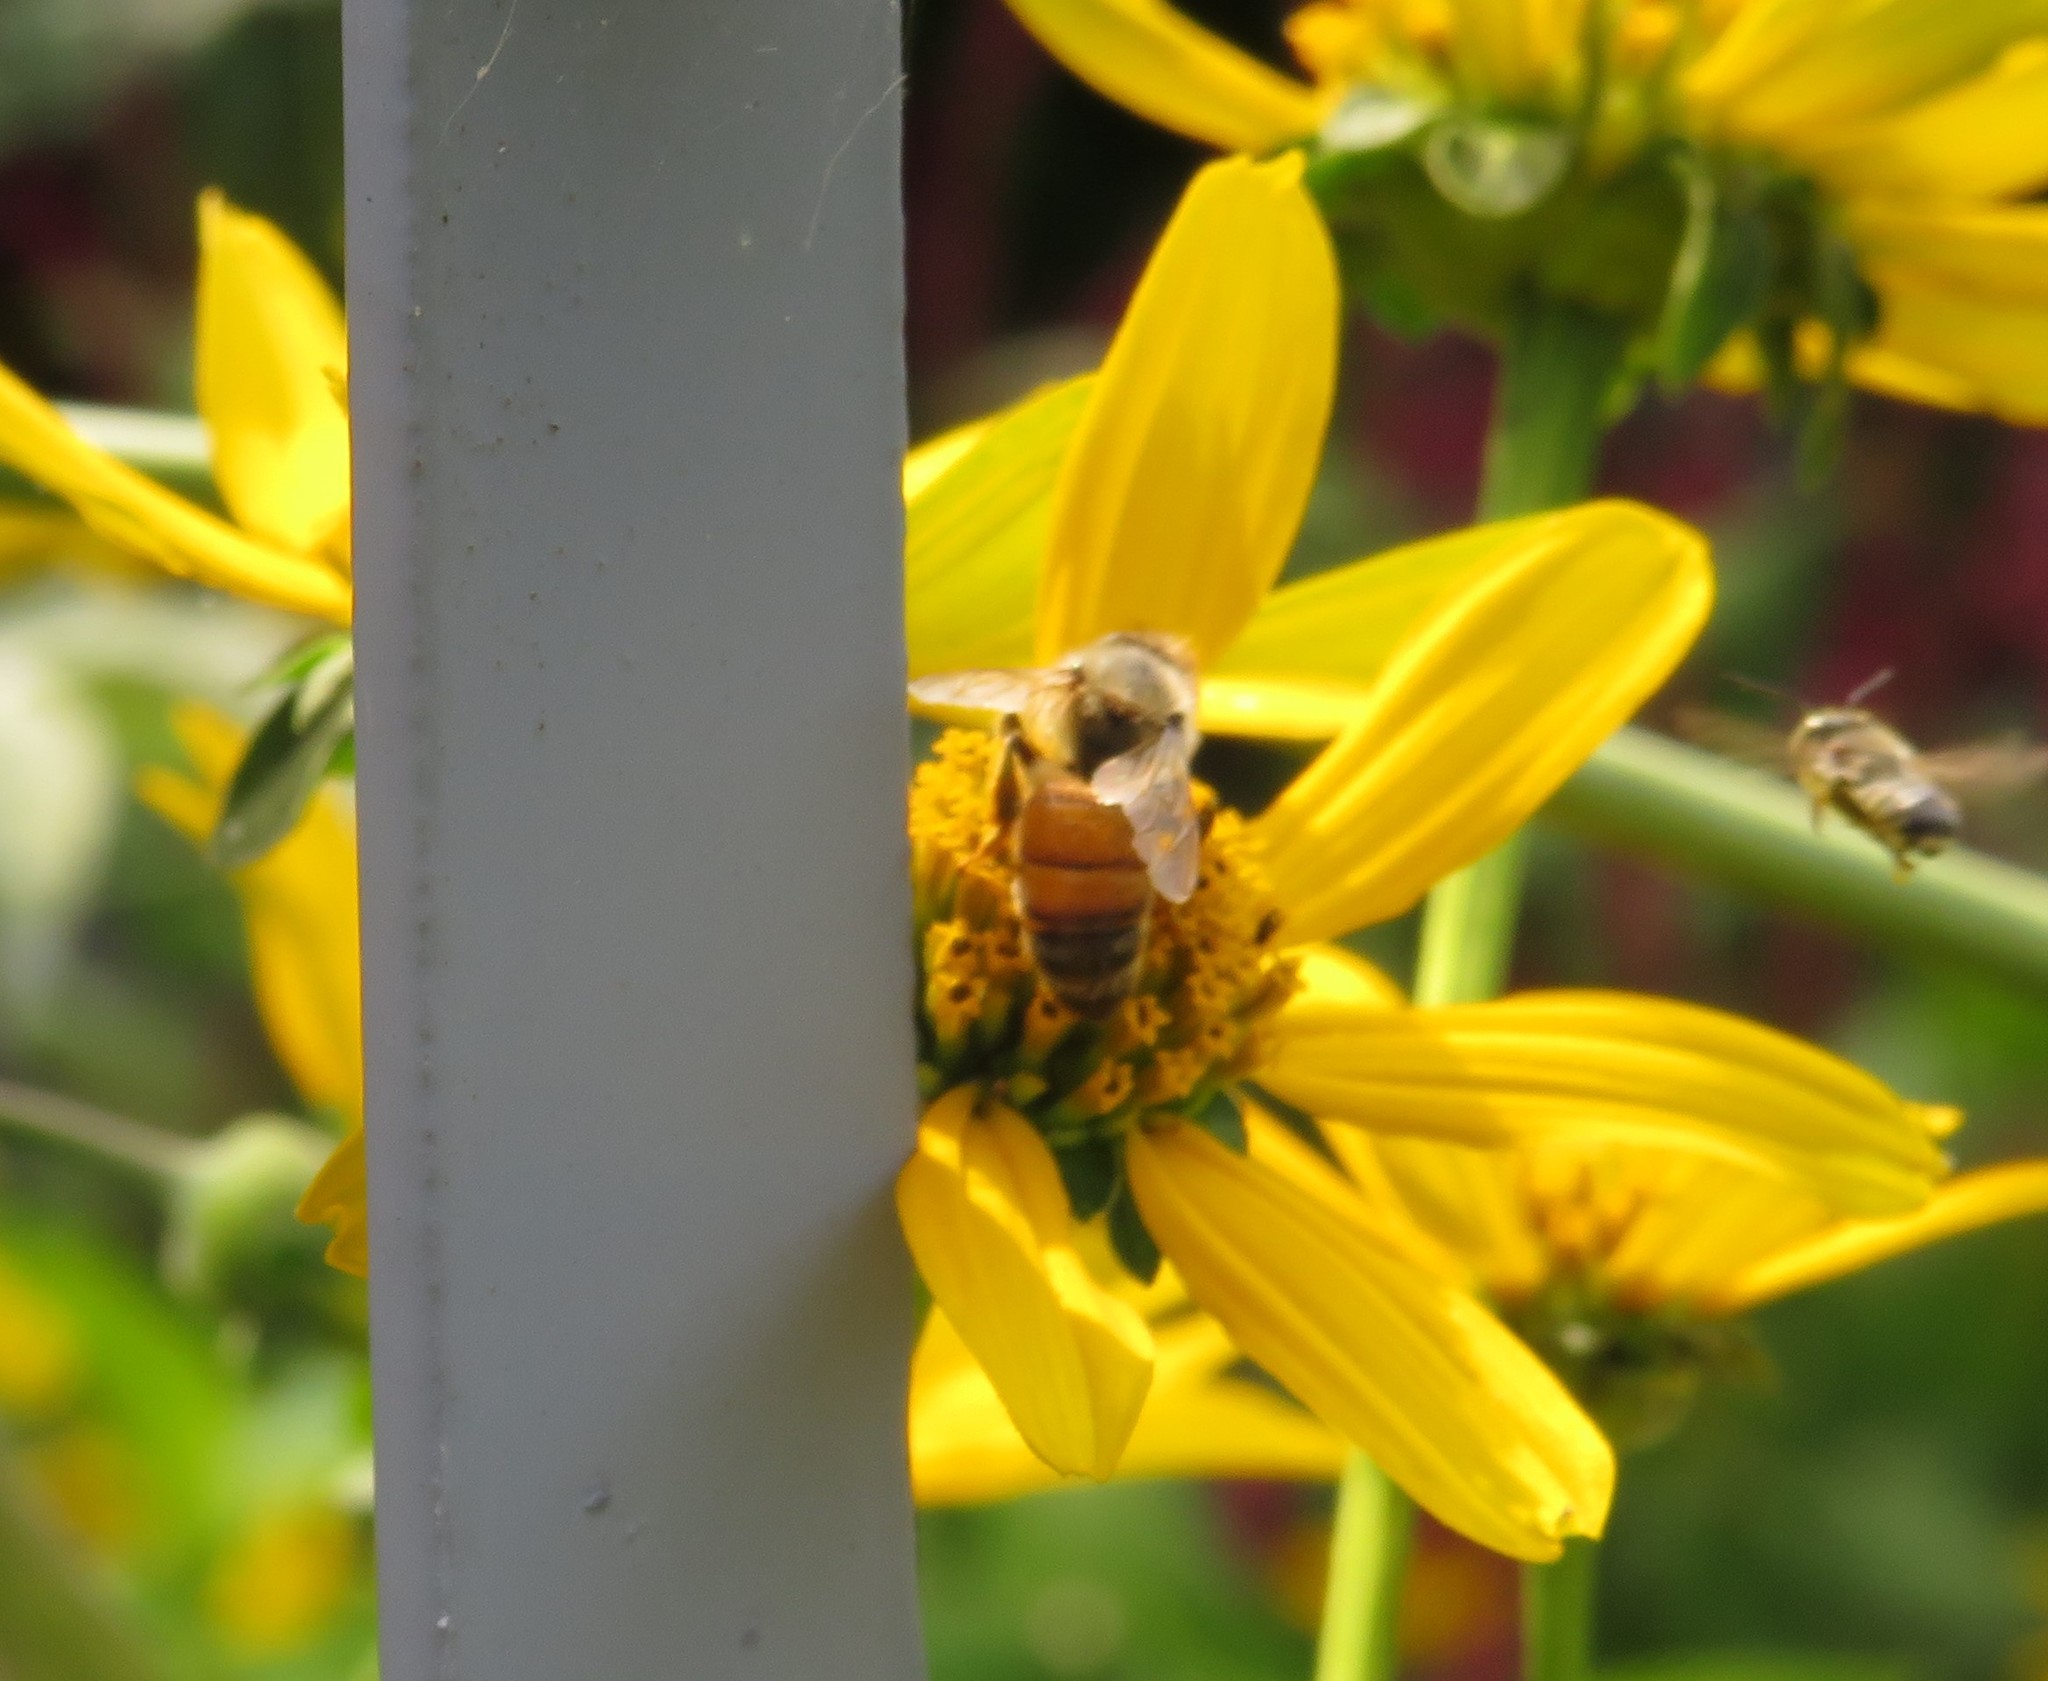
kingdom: Animalia
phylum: Arthropoda
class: Insecta
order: Hymenoptera
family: Apidae
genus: Apis
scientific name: Apis mellifera
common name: Honey bee
